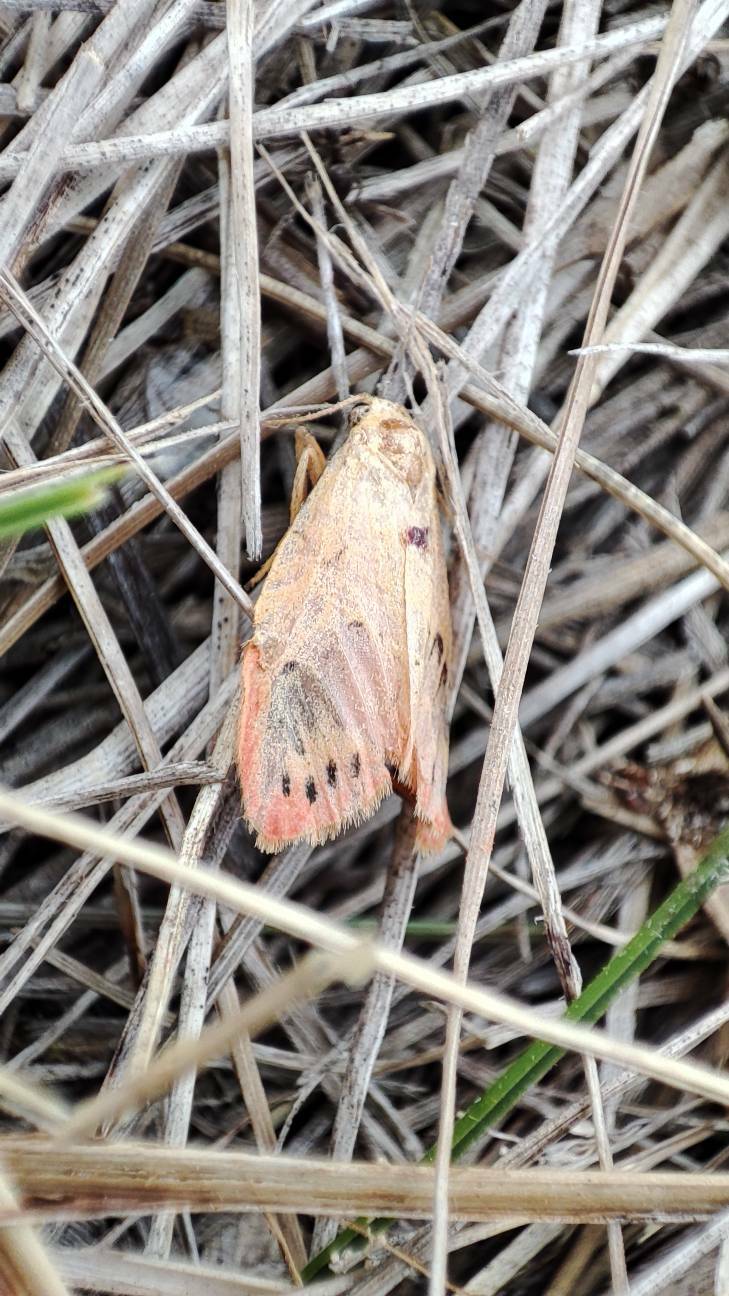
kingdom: Animalia
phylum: Arthropoda
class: Insecta
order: Lepidoptera
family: Erebidae
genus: Miltochrista
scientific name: Miltochrista miniata
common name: Rosy footman
